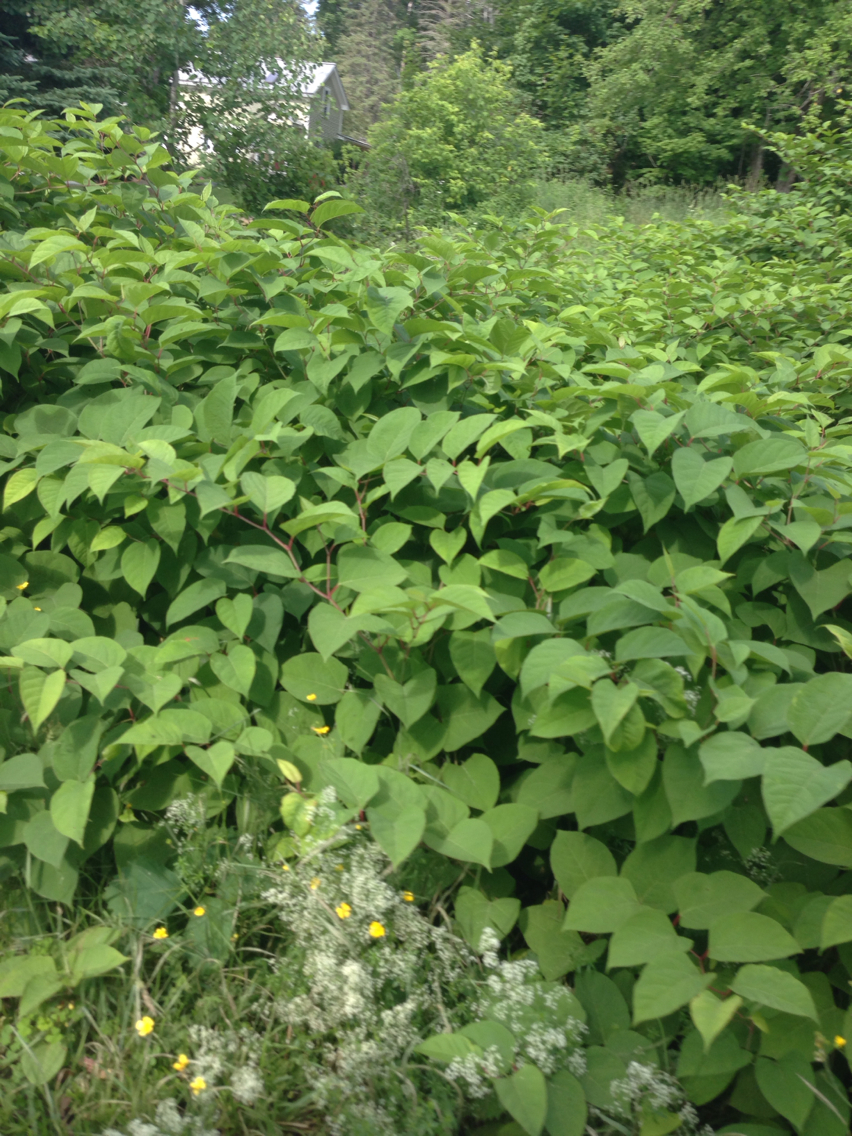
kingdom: Plantae
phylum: Tracheophyta
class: Magnoliopsida
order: Caryophyllales
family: Polygonaceae
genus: Reynoutria
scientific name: Reynoutria japonica
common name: Japanese knotweed
